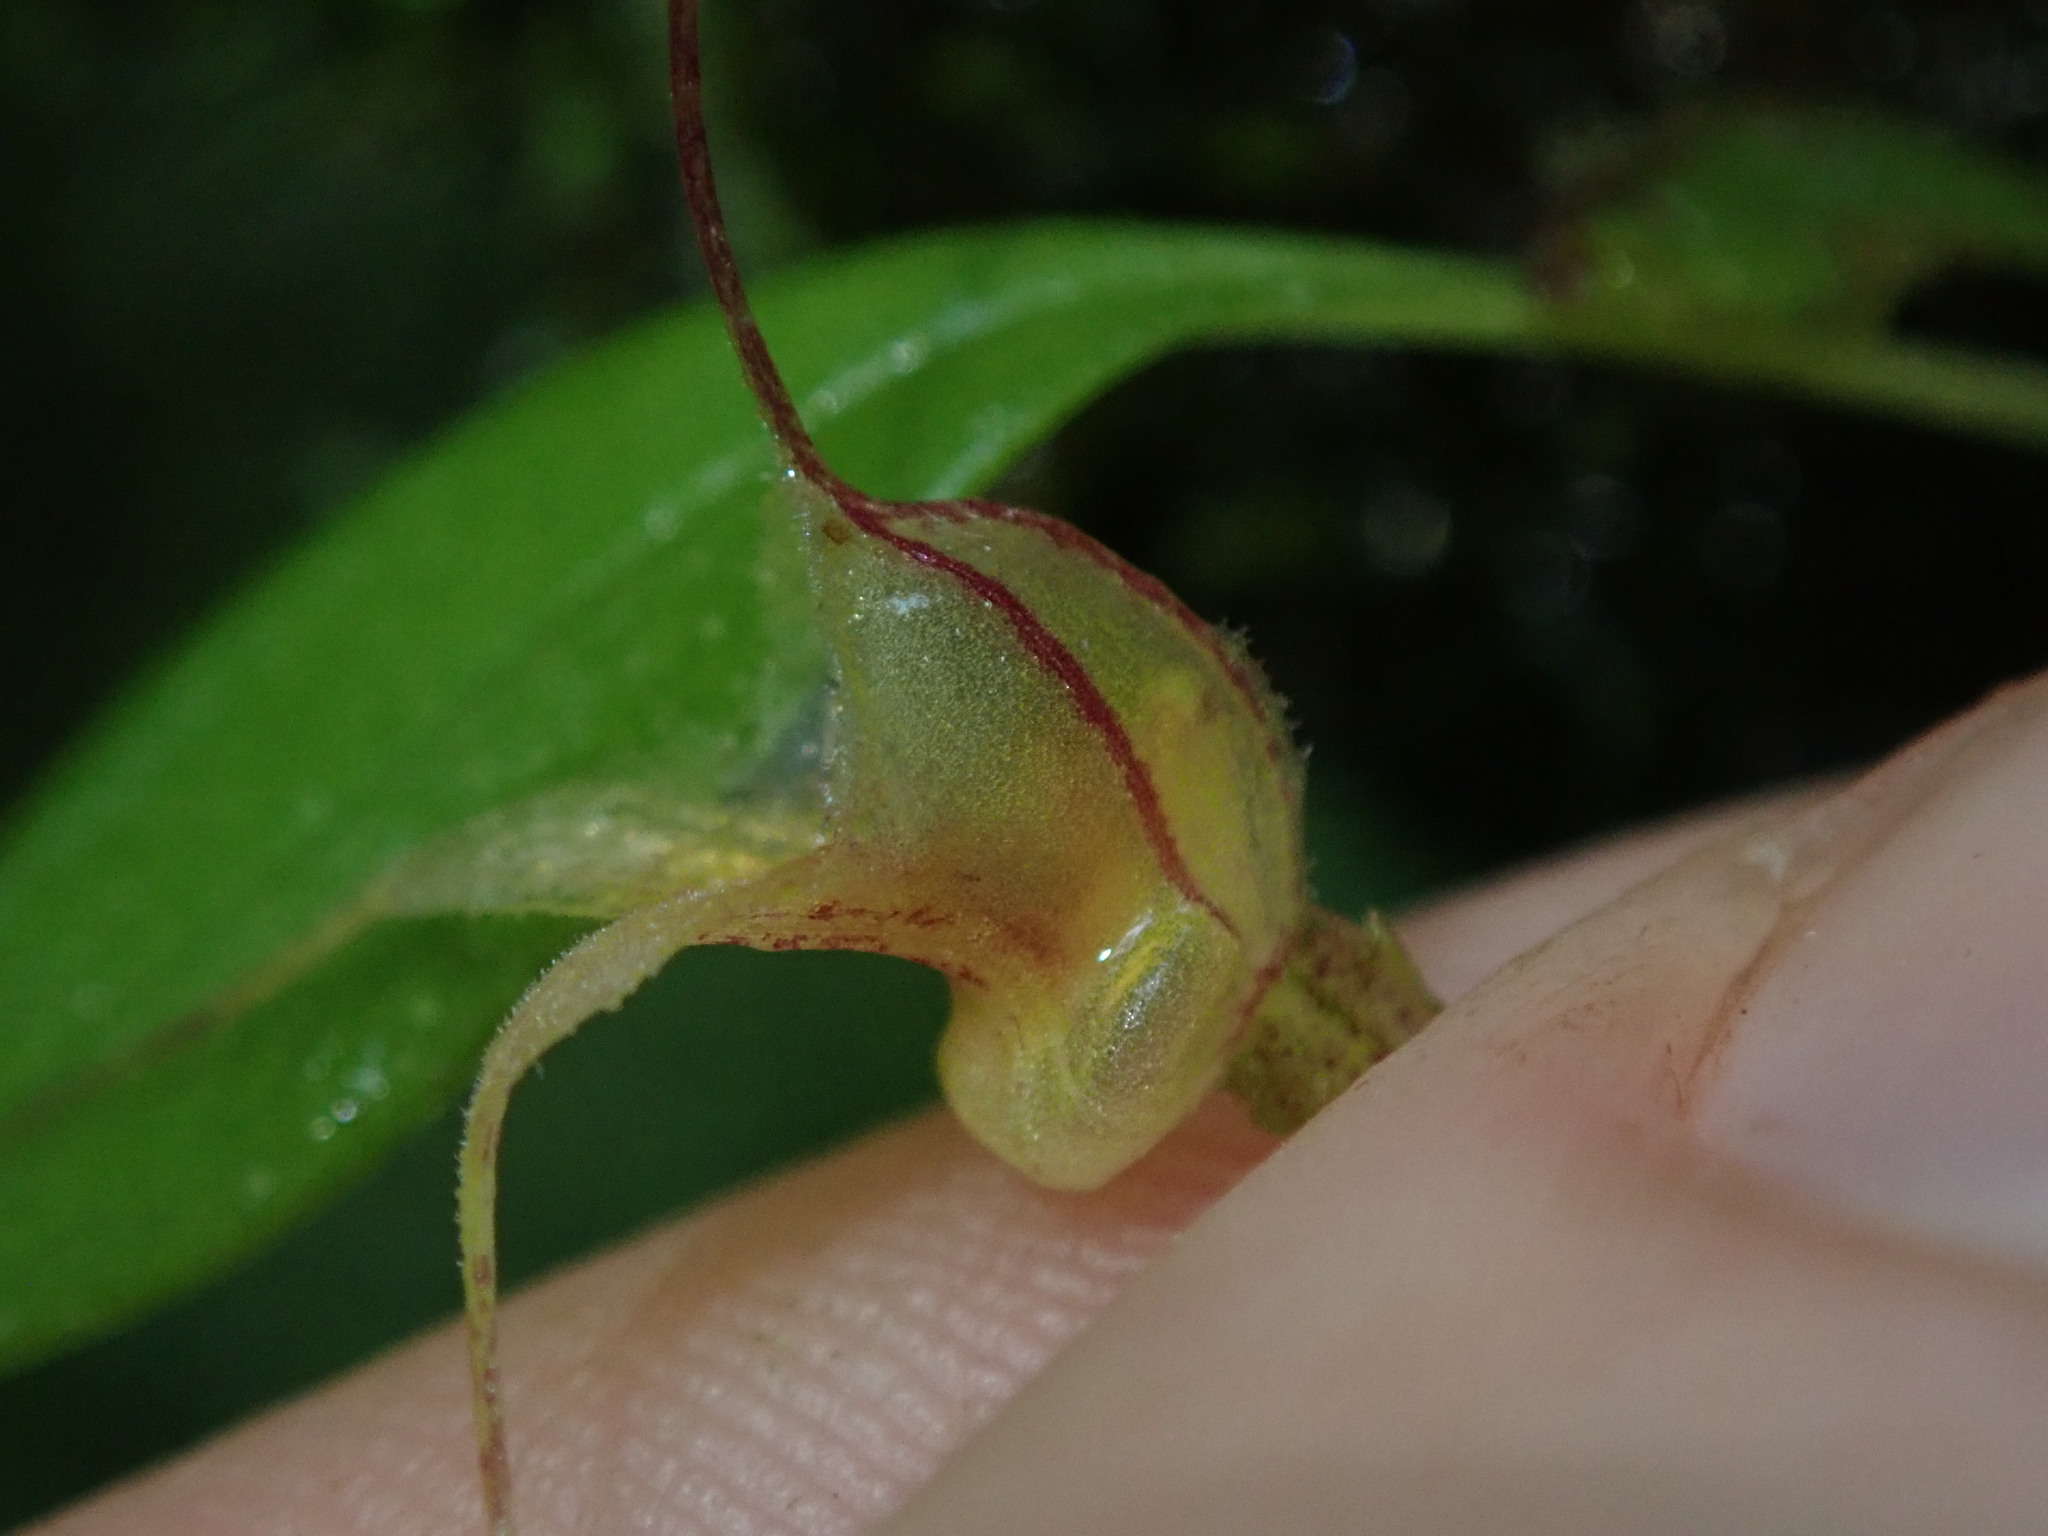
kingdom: Plantae
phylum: Tracheophyta
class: Liliopsida
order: Asparagales
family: Orchidaceae
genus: Masdevallia
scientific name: Masdevallia nidifica
